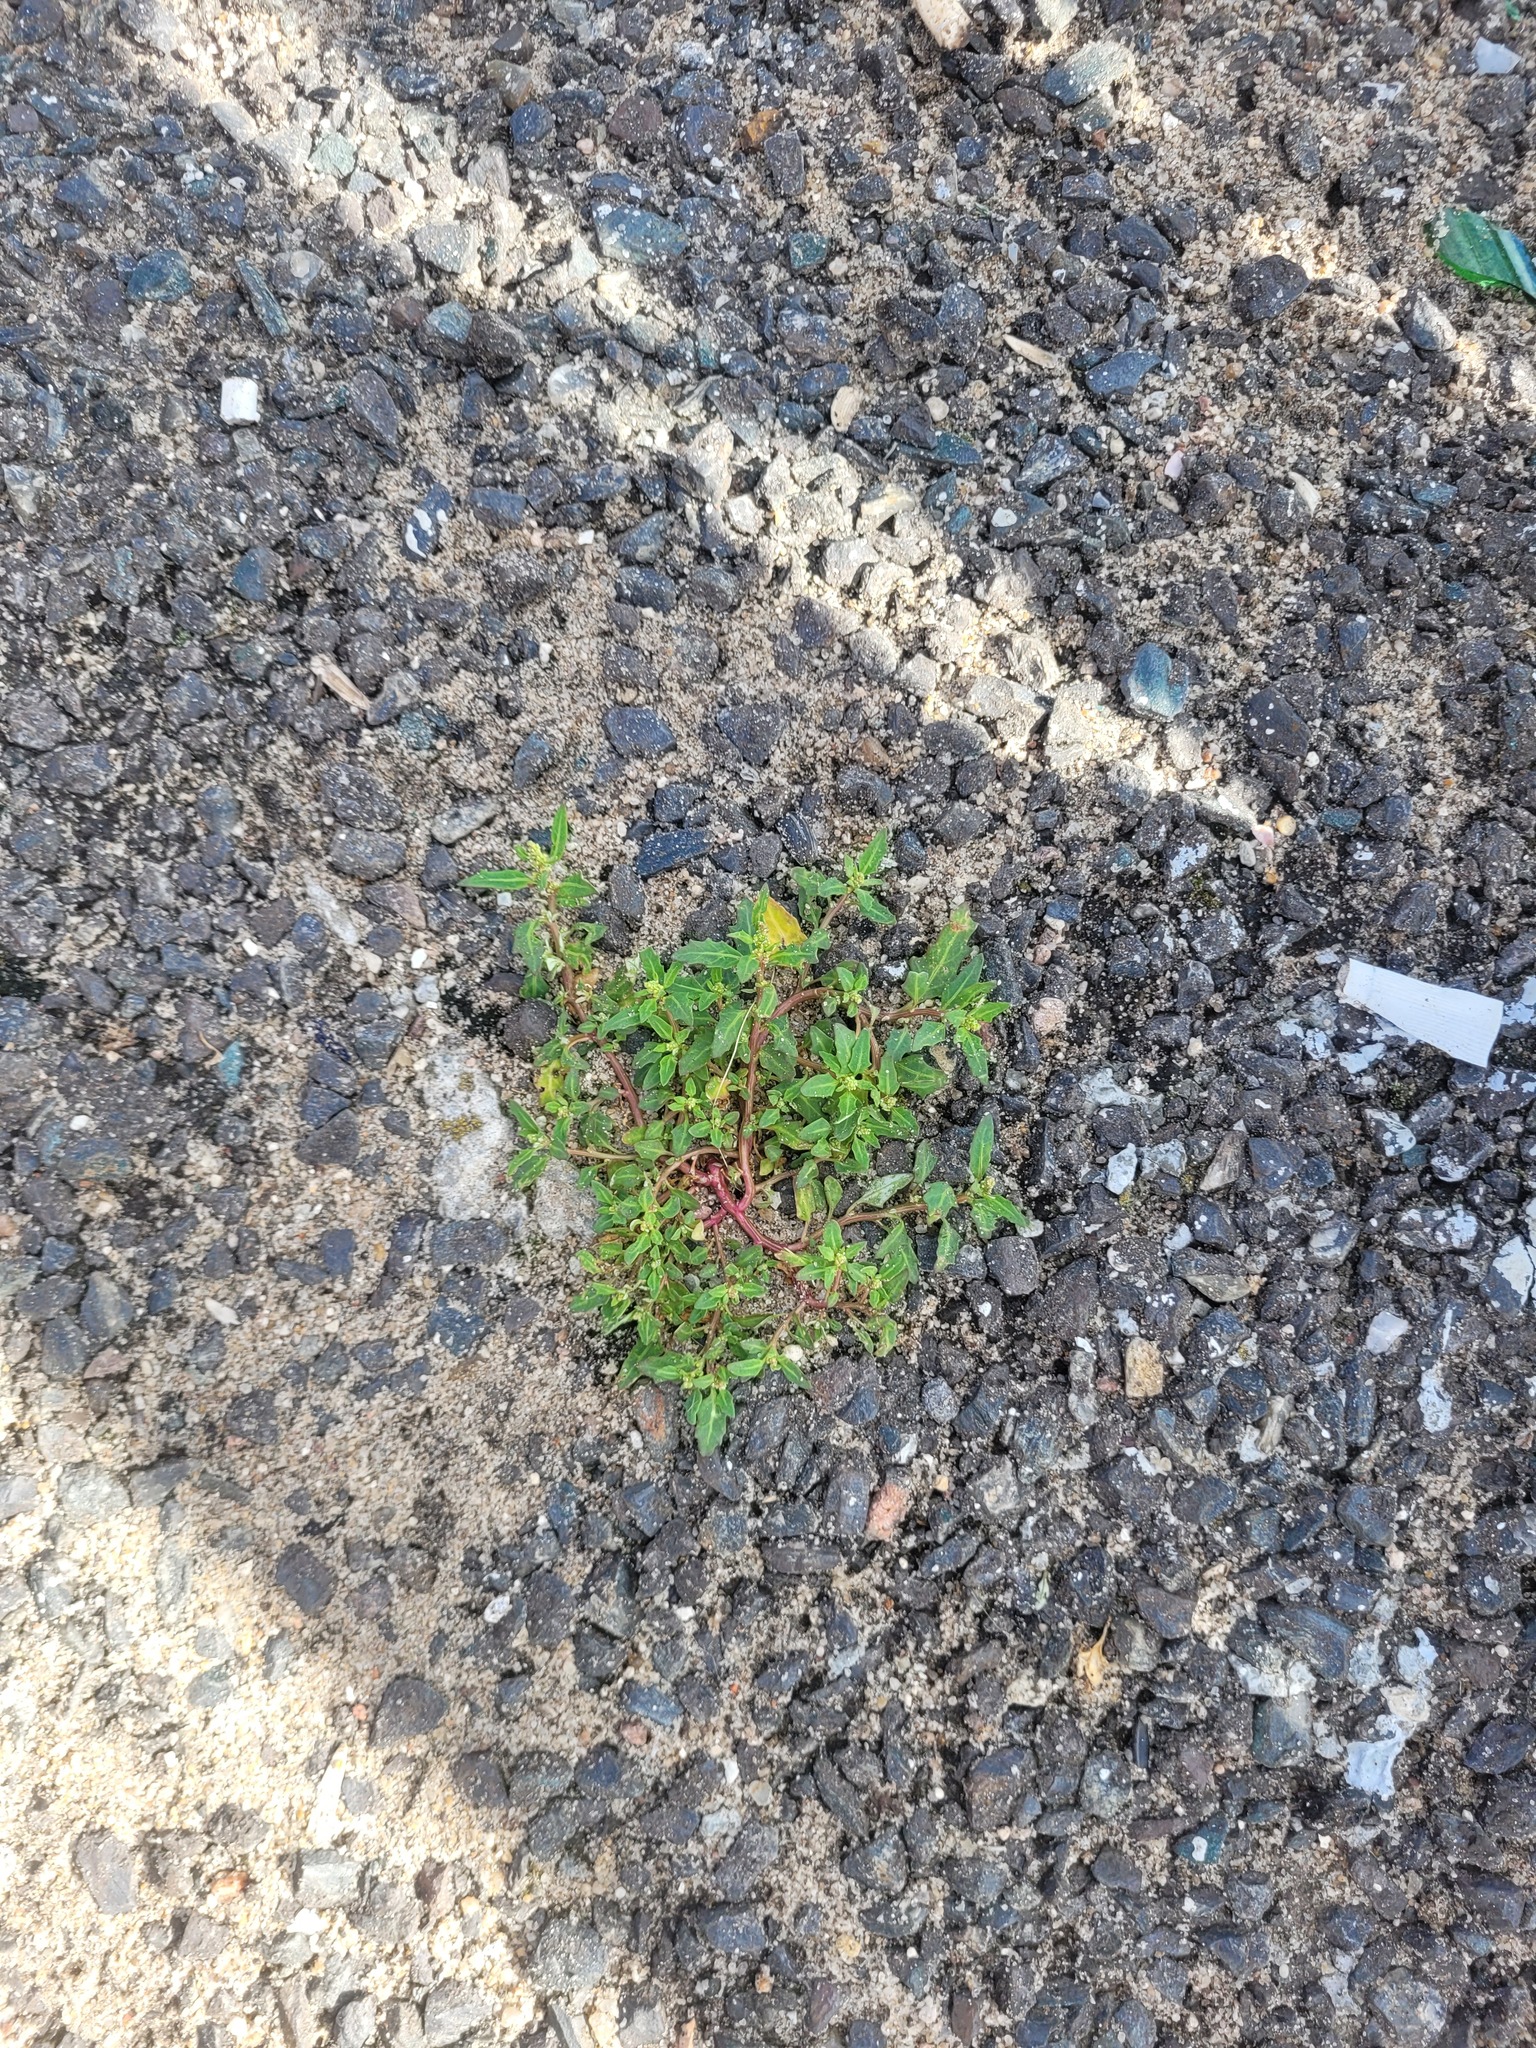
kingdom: Plantae
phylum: Tracheophyta
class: Magnoliopsida
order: Caryophyllales
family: Amaranthaceae
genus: Oxybasis
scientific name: Oxybasis glauca
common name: Glaucous goosefoot
